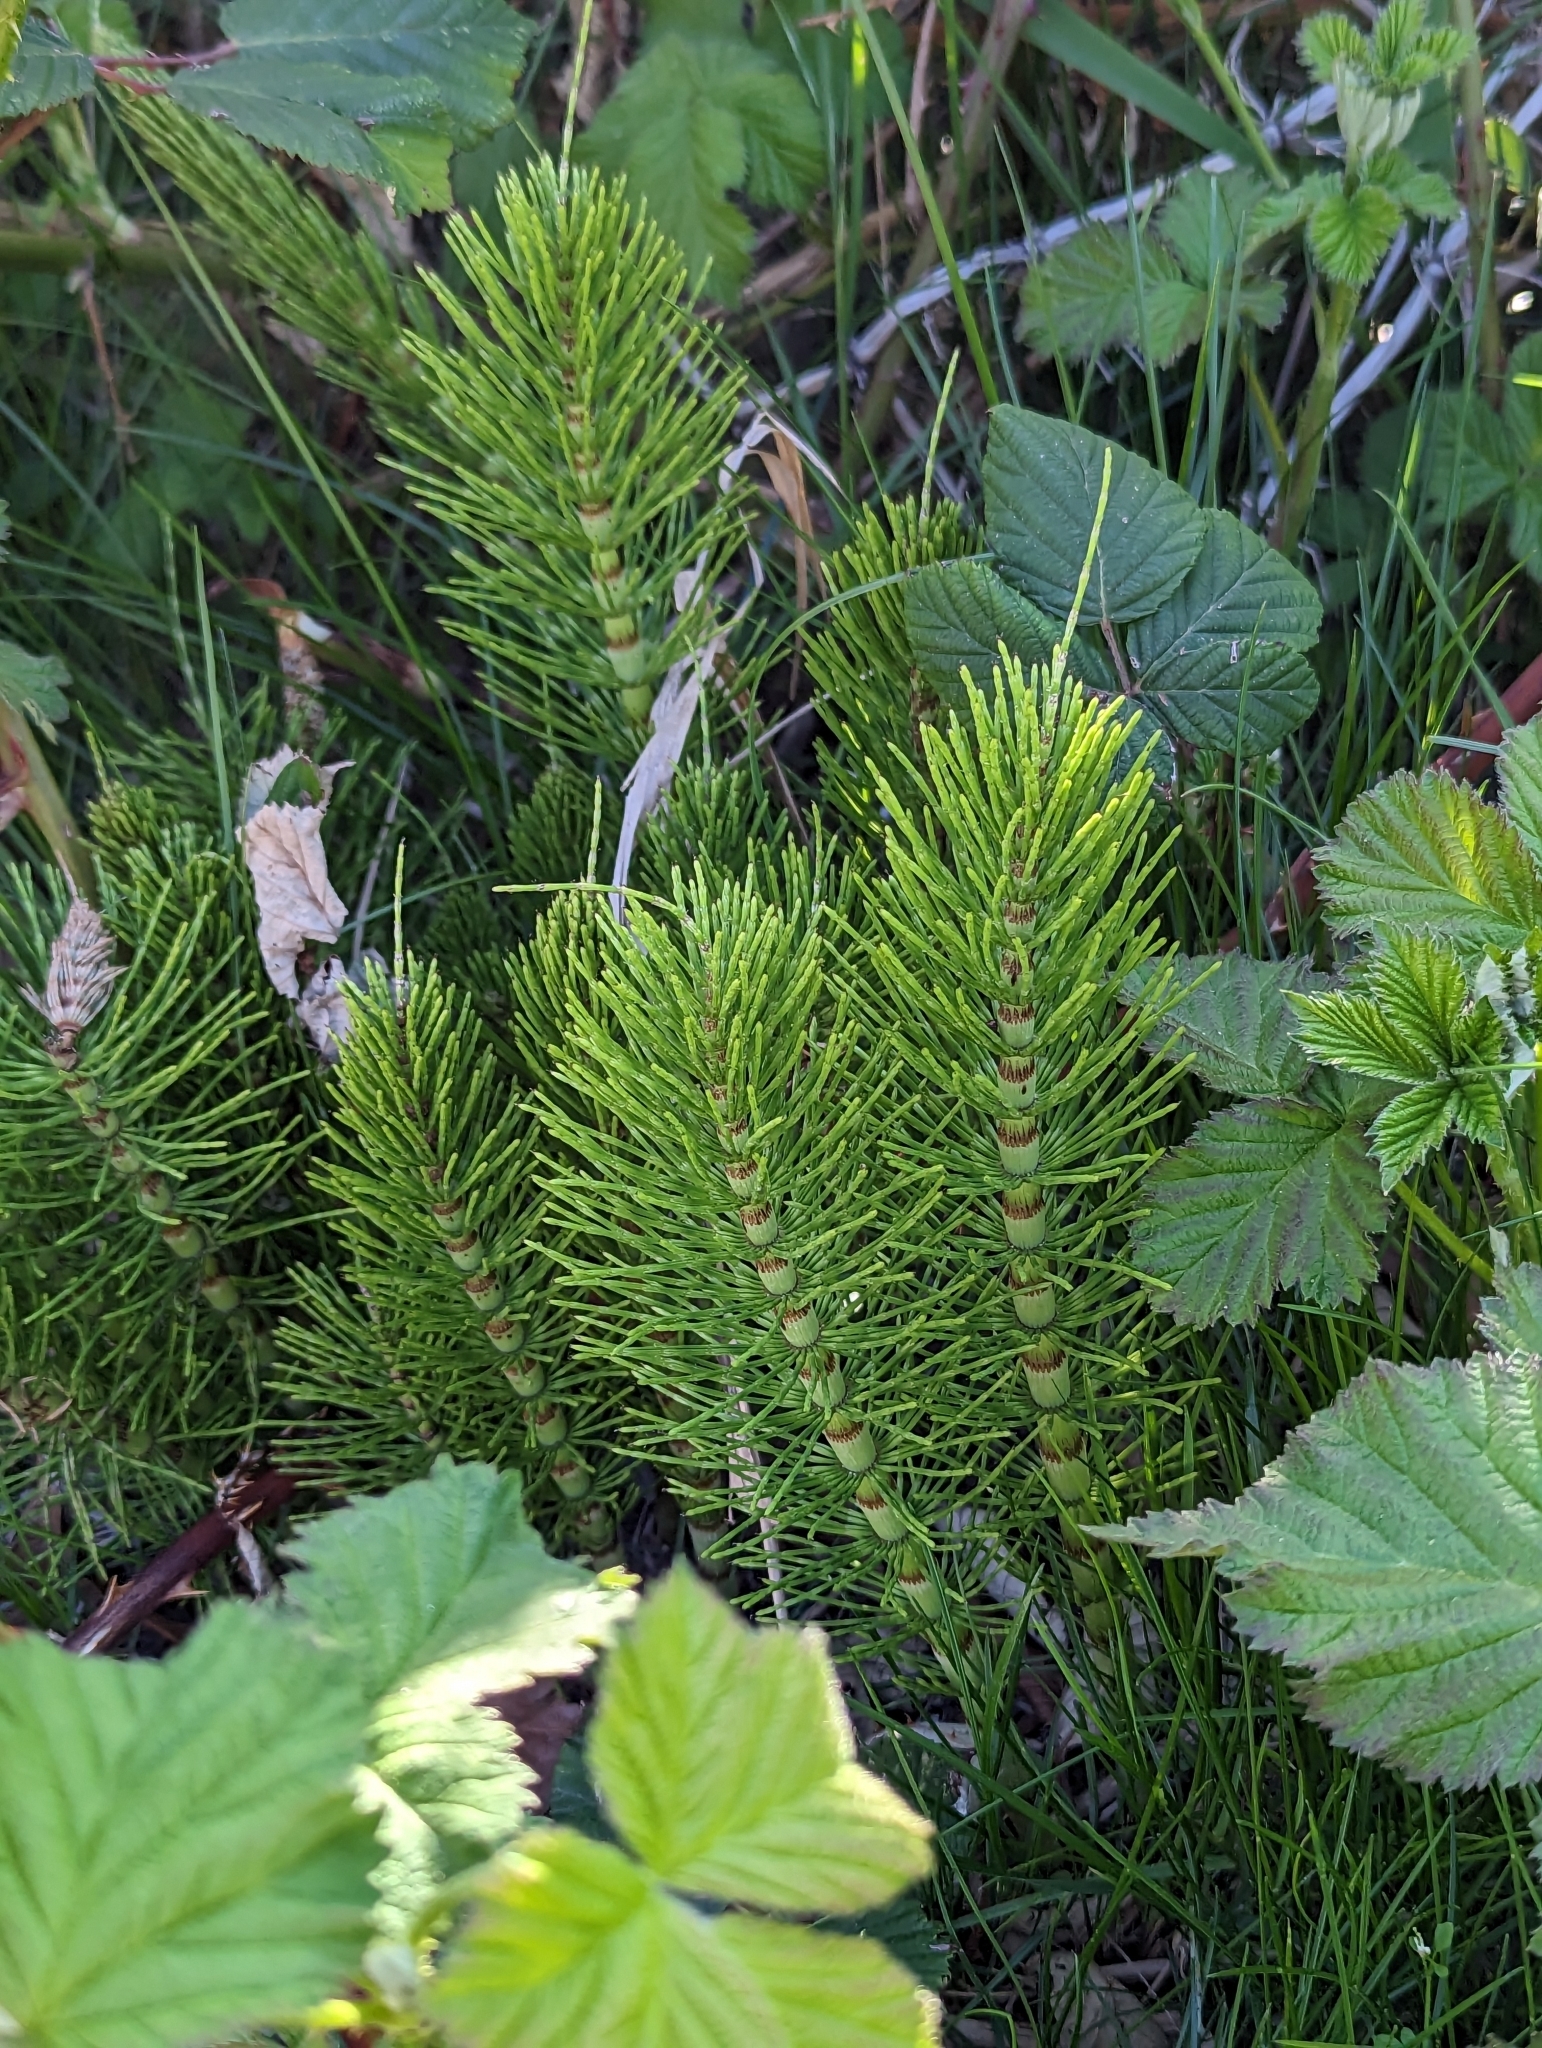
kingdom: Plantae
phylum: Tracheophyta
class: Polypodiopsida
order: Equisetales
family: Equisetaceae
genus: Equisetum
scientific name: Equisetum telmateia
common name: Great horsetail
